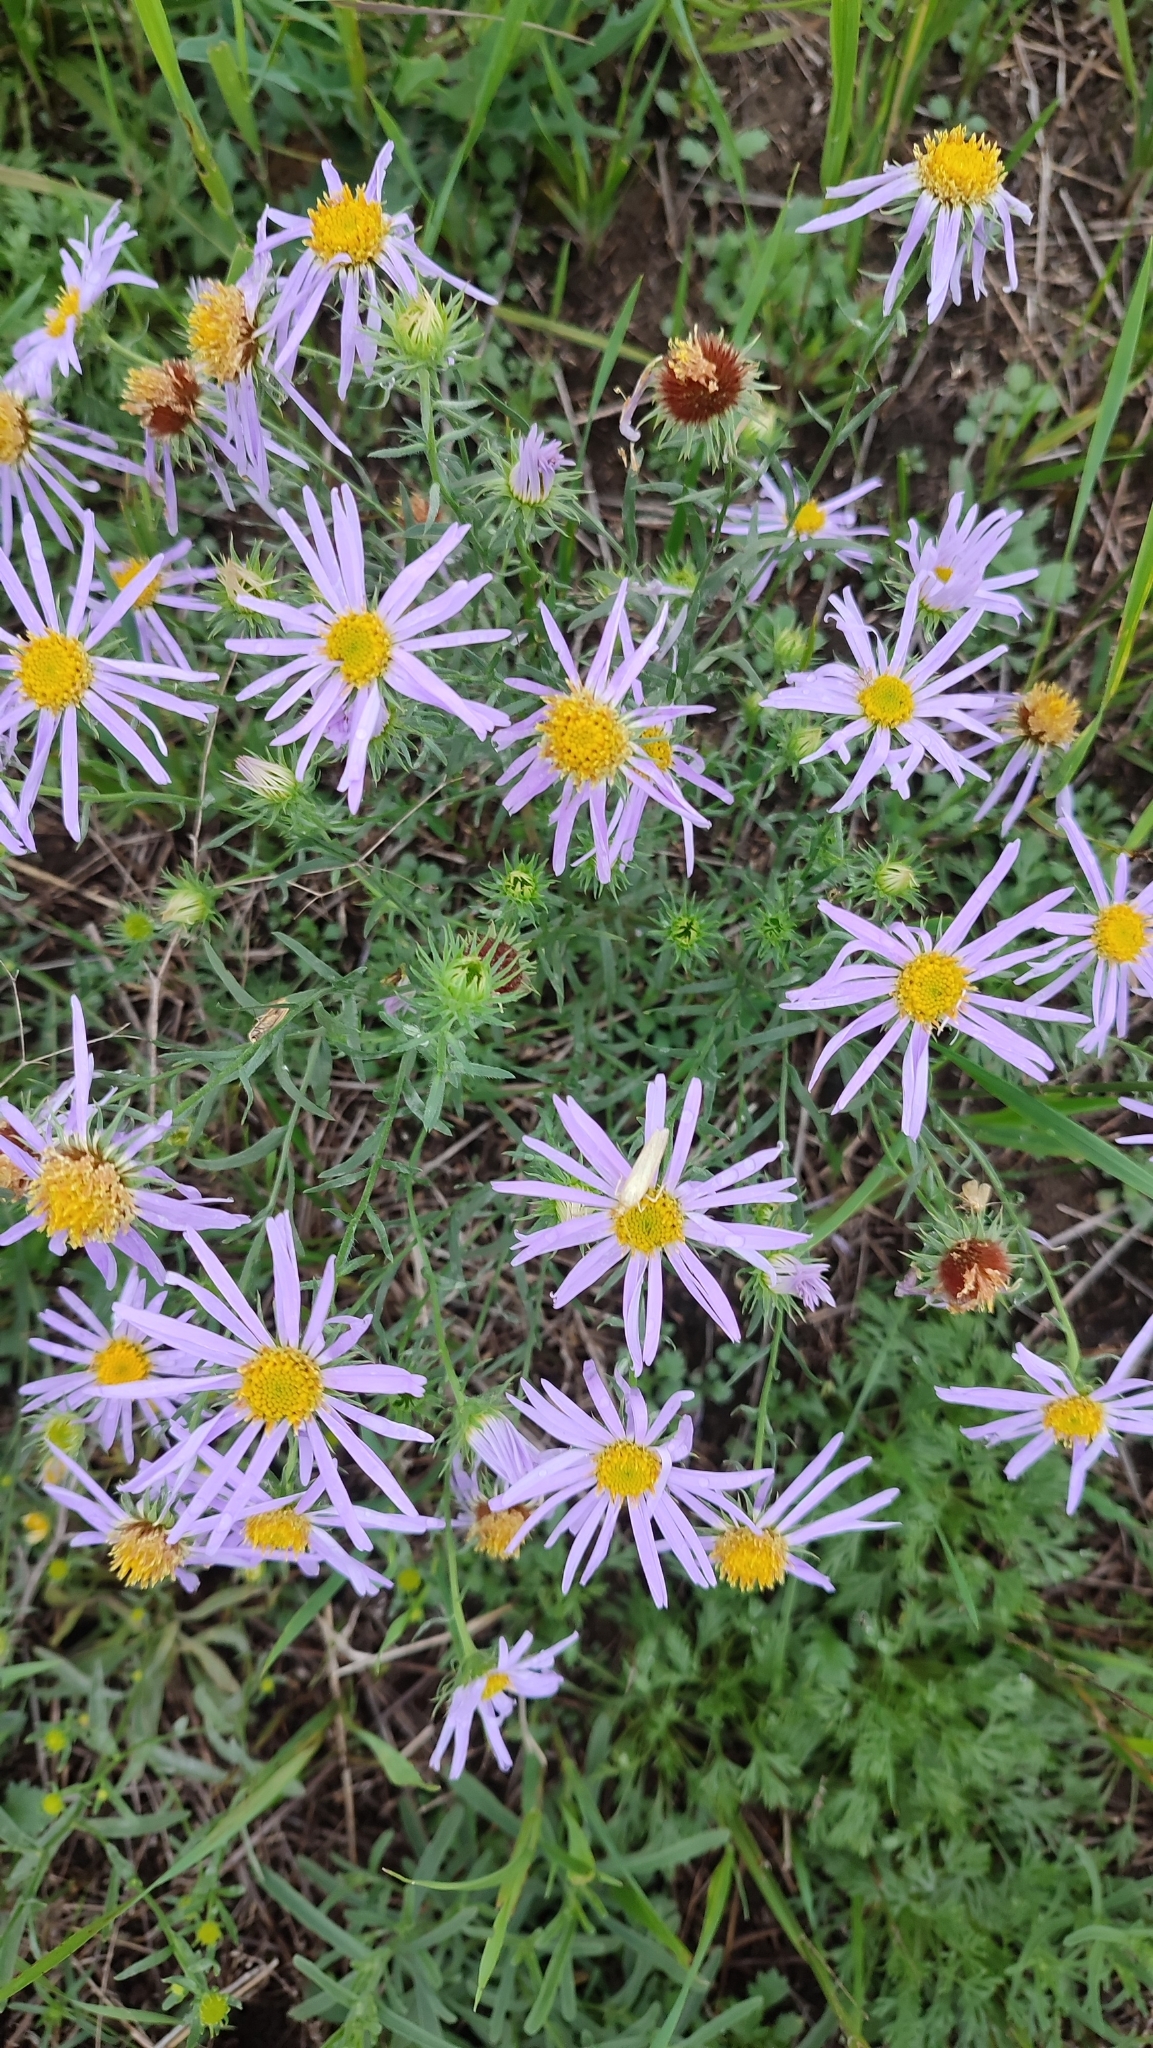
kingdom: Plantae
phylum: Tracheophyta
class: Magnoliopsida
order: Asterales
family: Asteraceae
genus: Aster
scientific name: Aster biennis
